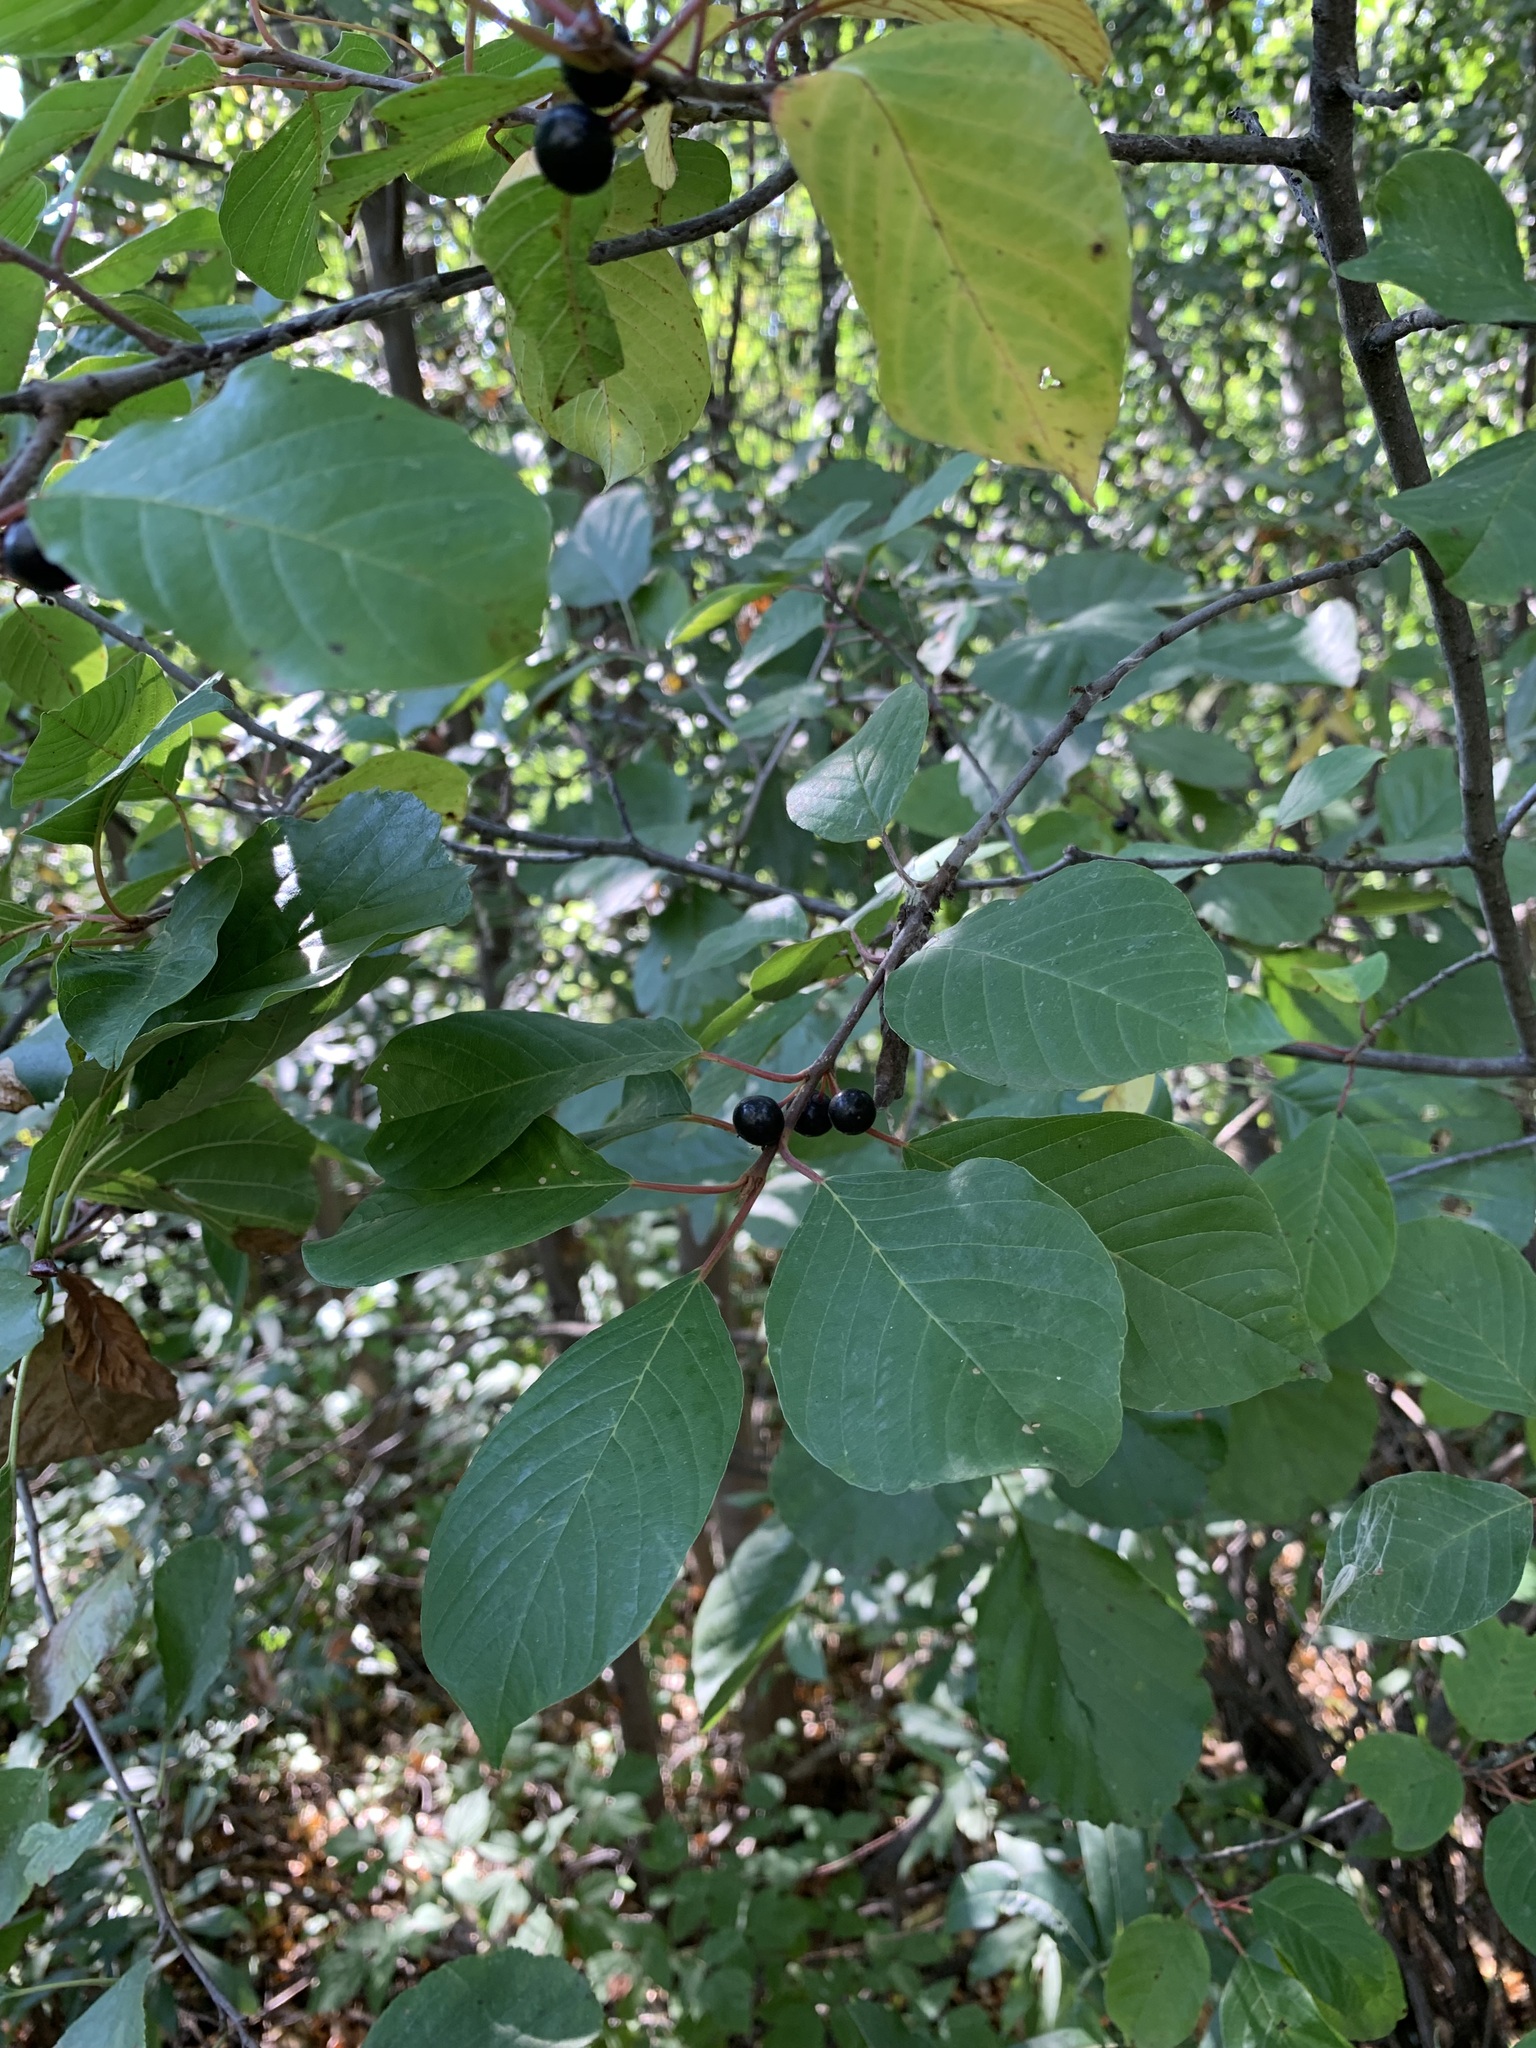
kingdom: Plantae
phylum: Tracheophyta
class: Magnoliopsida
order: Rosales
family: Rhamnaceae
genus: Frangula
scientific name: Frangula alnus
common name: Alder buckthorn
